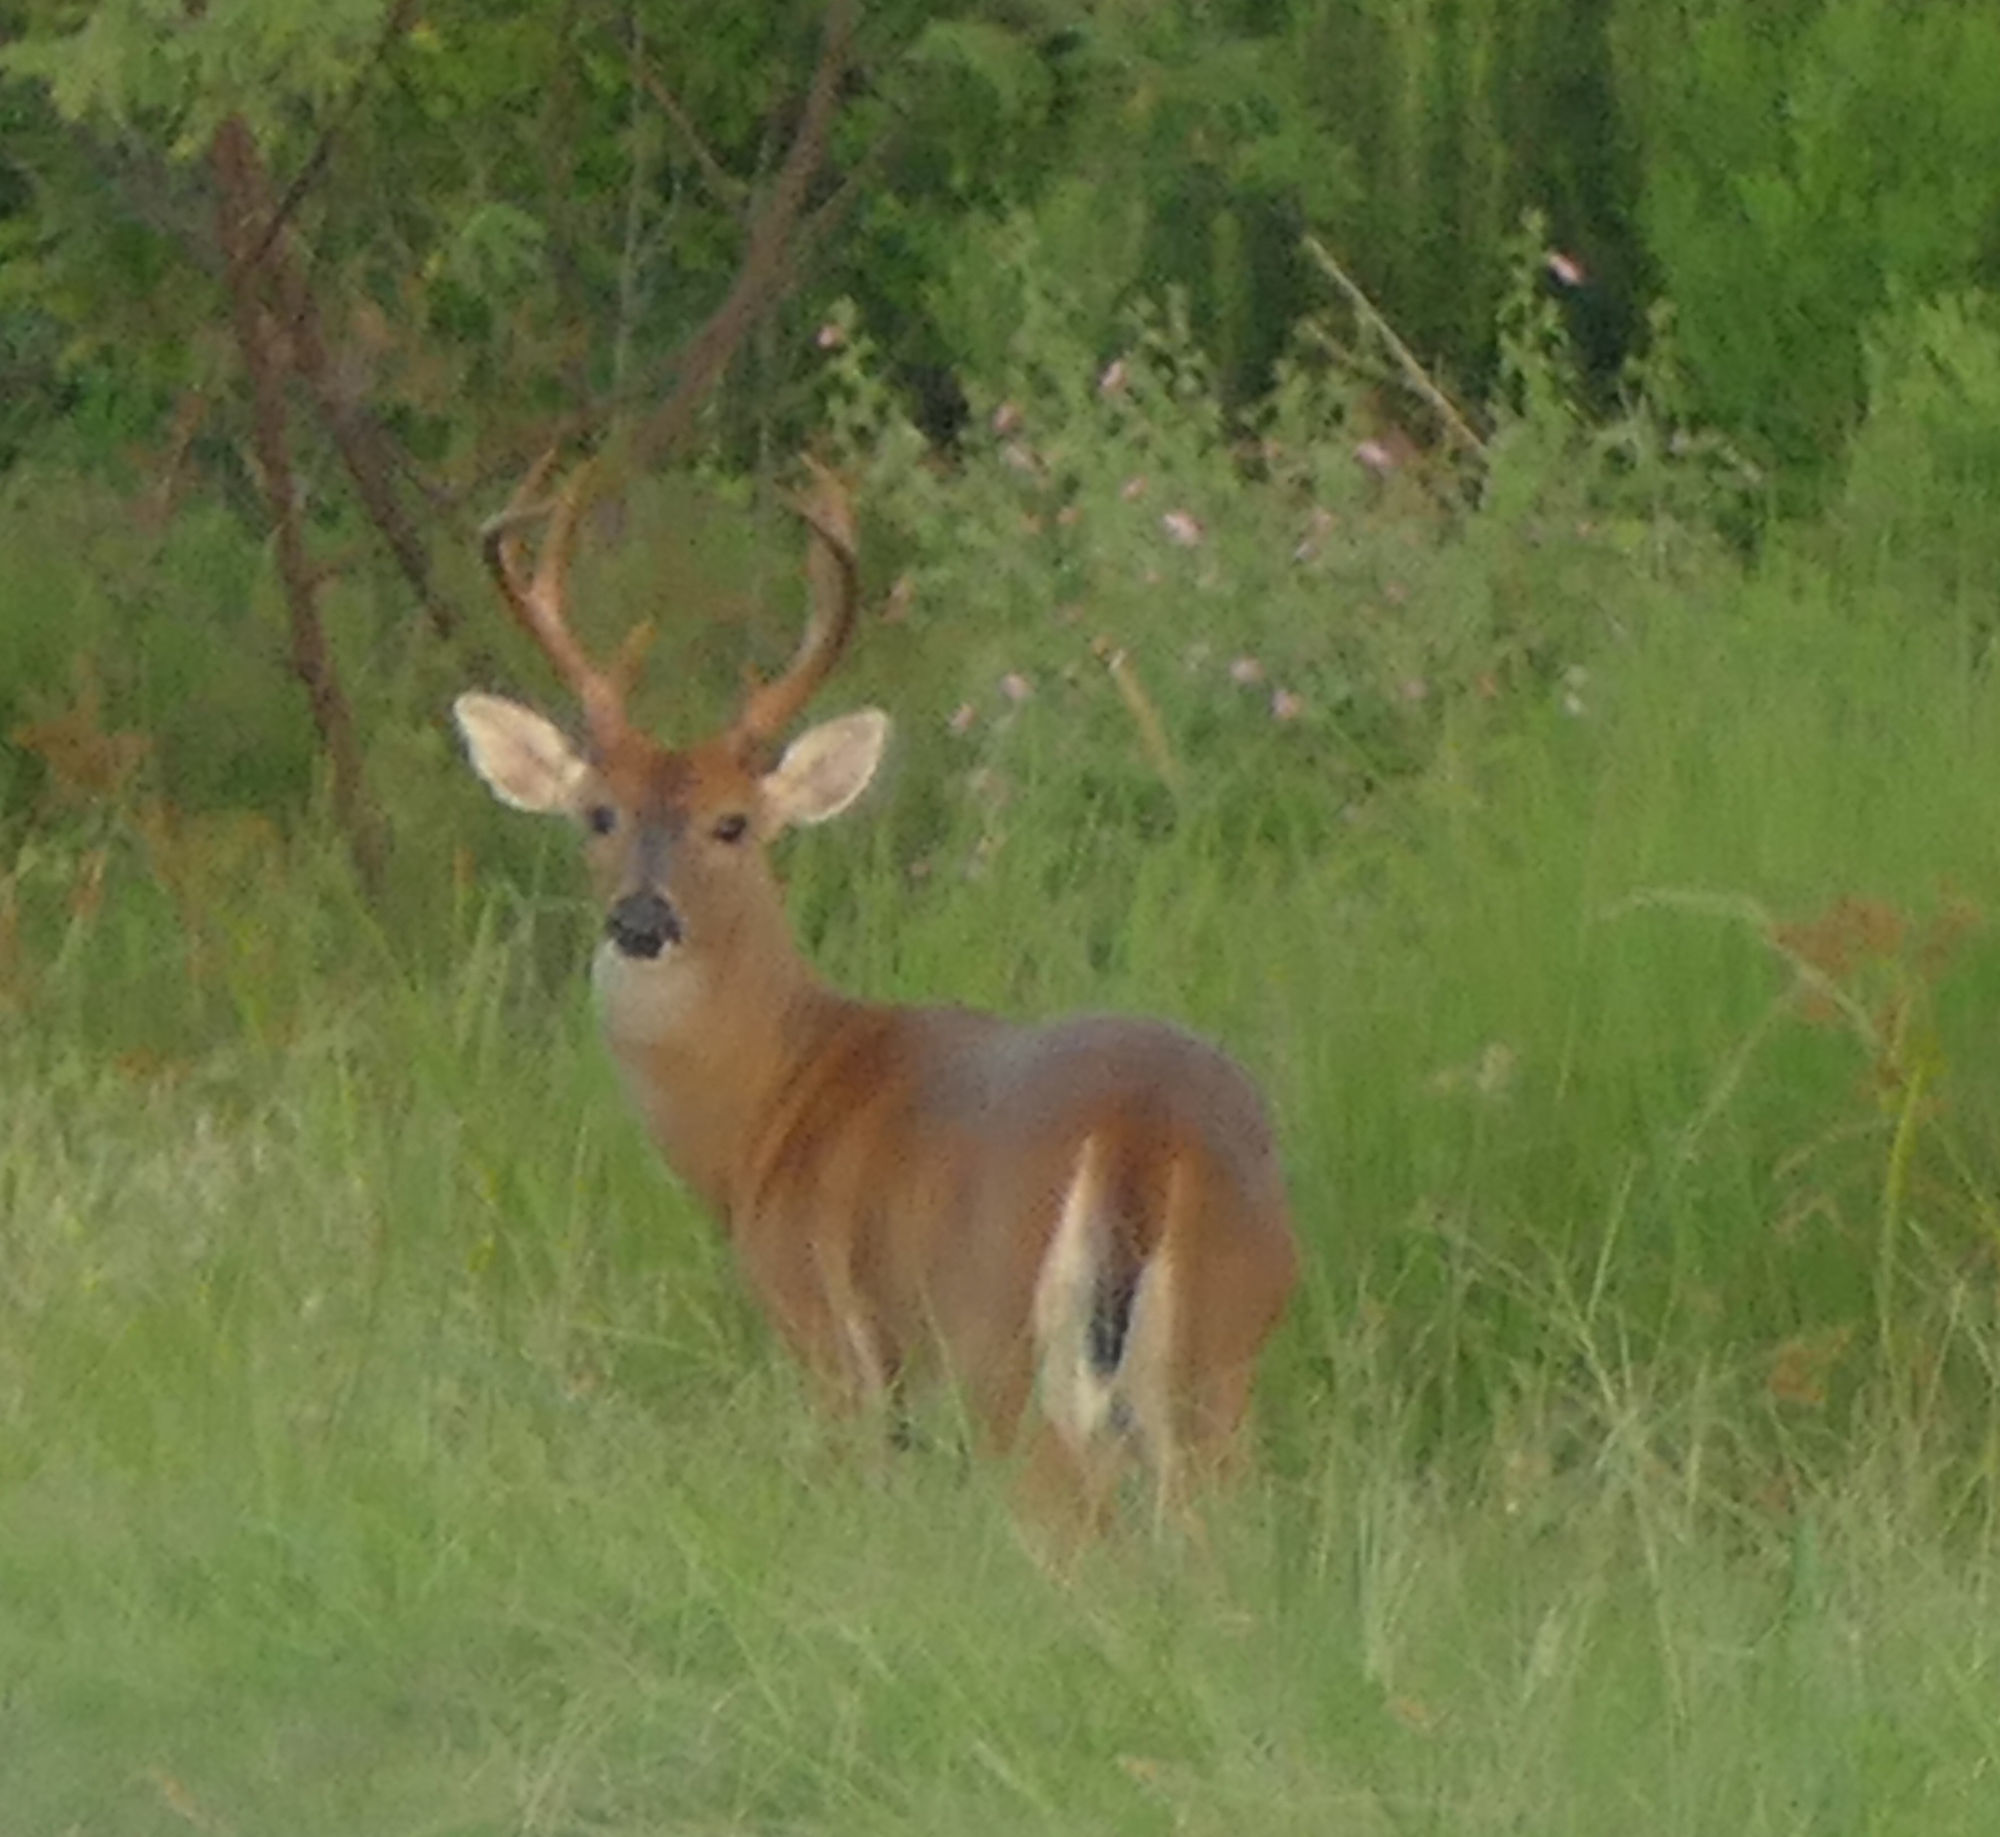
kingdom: Animalia
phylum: Chordata
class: Mammalia
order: Artiodactyla
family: Cervidae
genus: Odocoileus
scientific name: Odocoileus virginianus
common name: White-tailed deer
